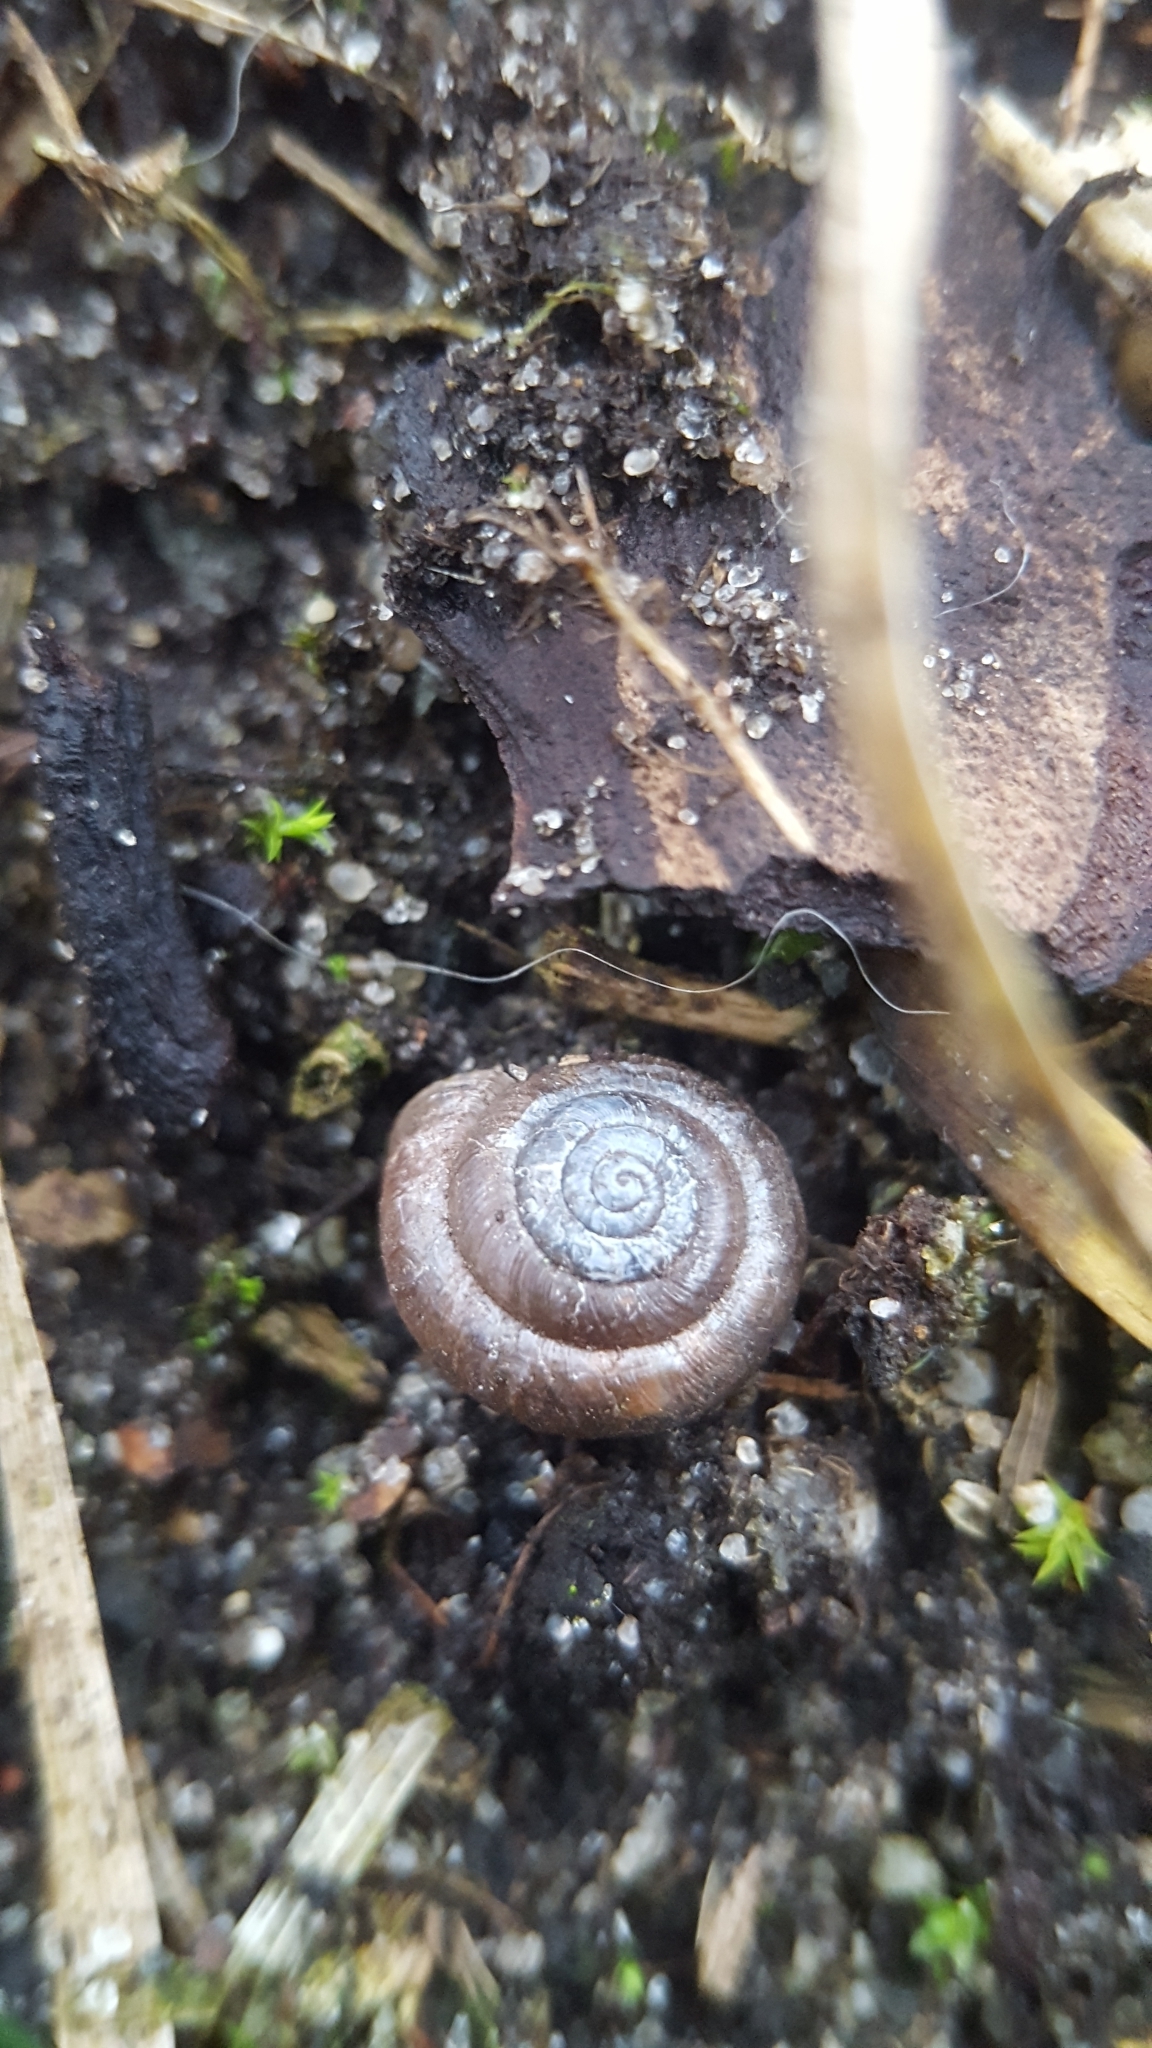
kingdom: Animalia
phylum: Mollusca
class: Gastropoda
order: Stylommatophora
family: Hygromiidae
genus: Trochulus
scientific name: Trochulus hispidus
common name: Hairy snail
